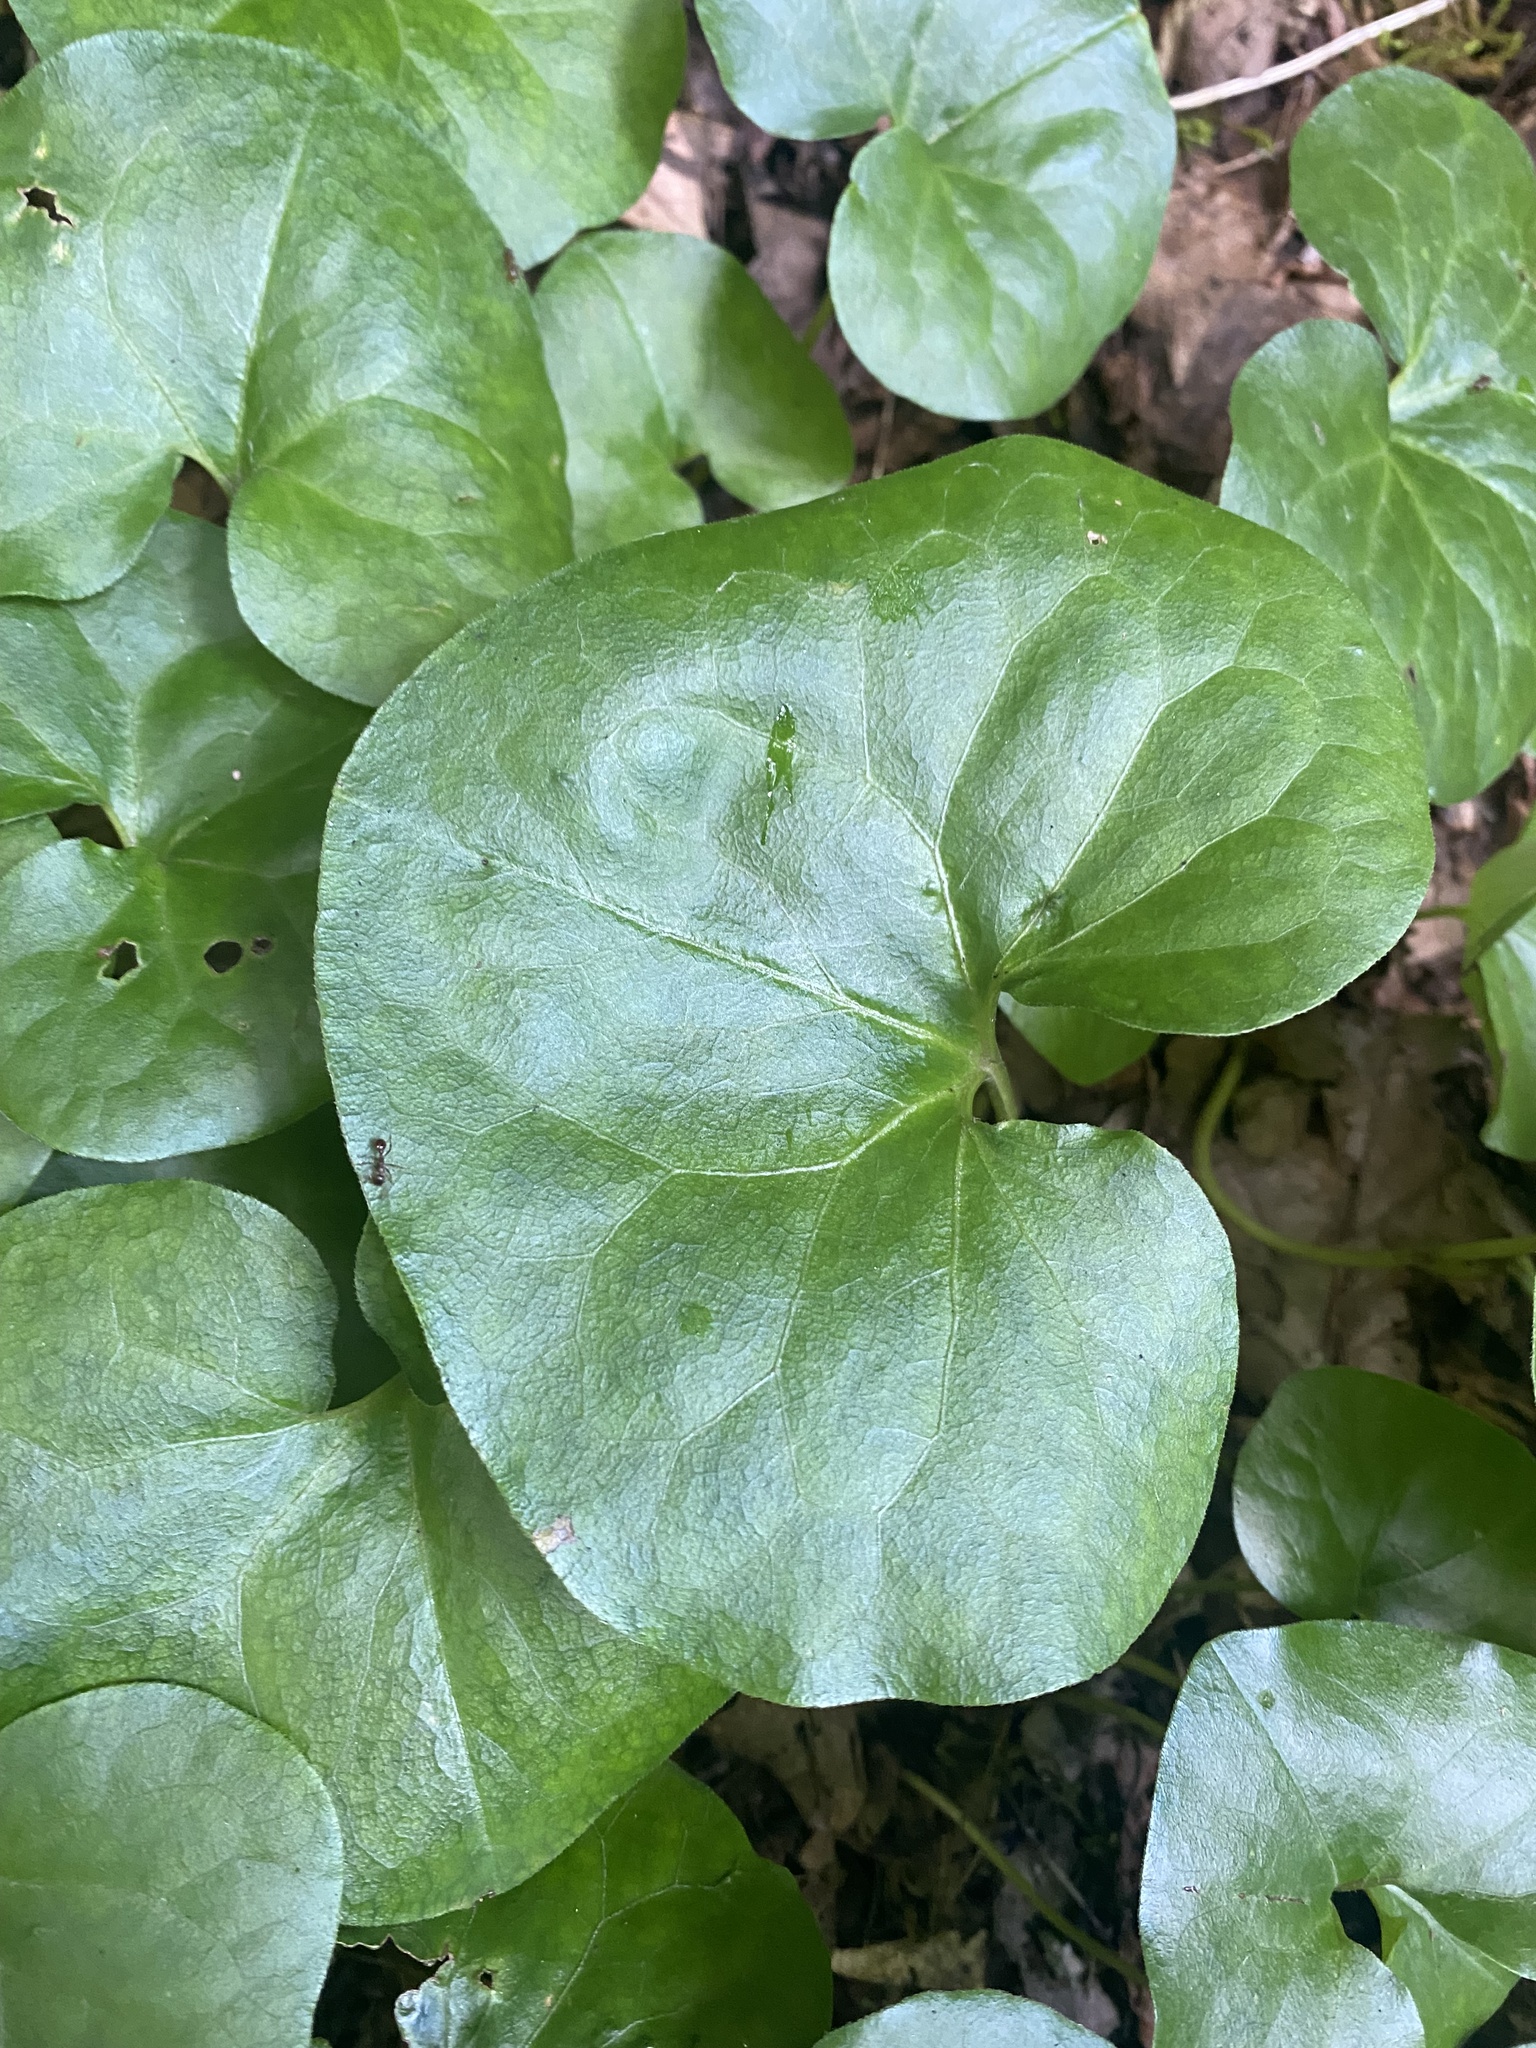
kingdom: Plantae
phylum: Tracheophyta
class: Magnoliopsida
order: Piperales
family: Aristolochiaceae
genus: Asarum
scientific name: Asarum europaeum
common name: Asarabacca
